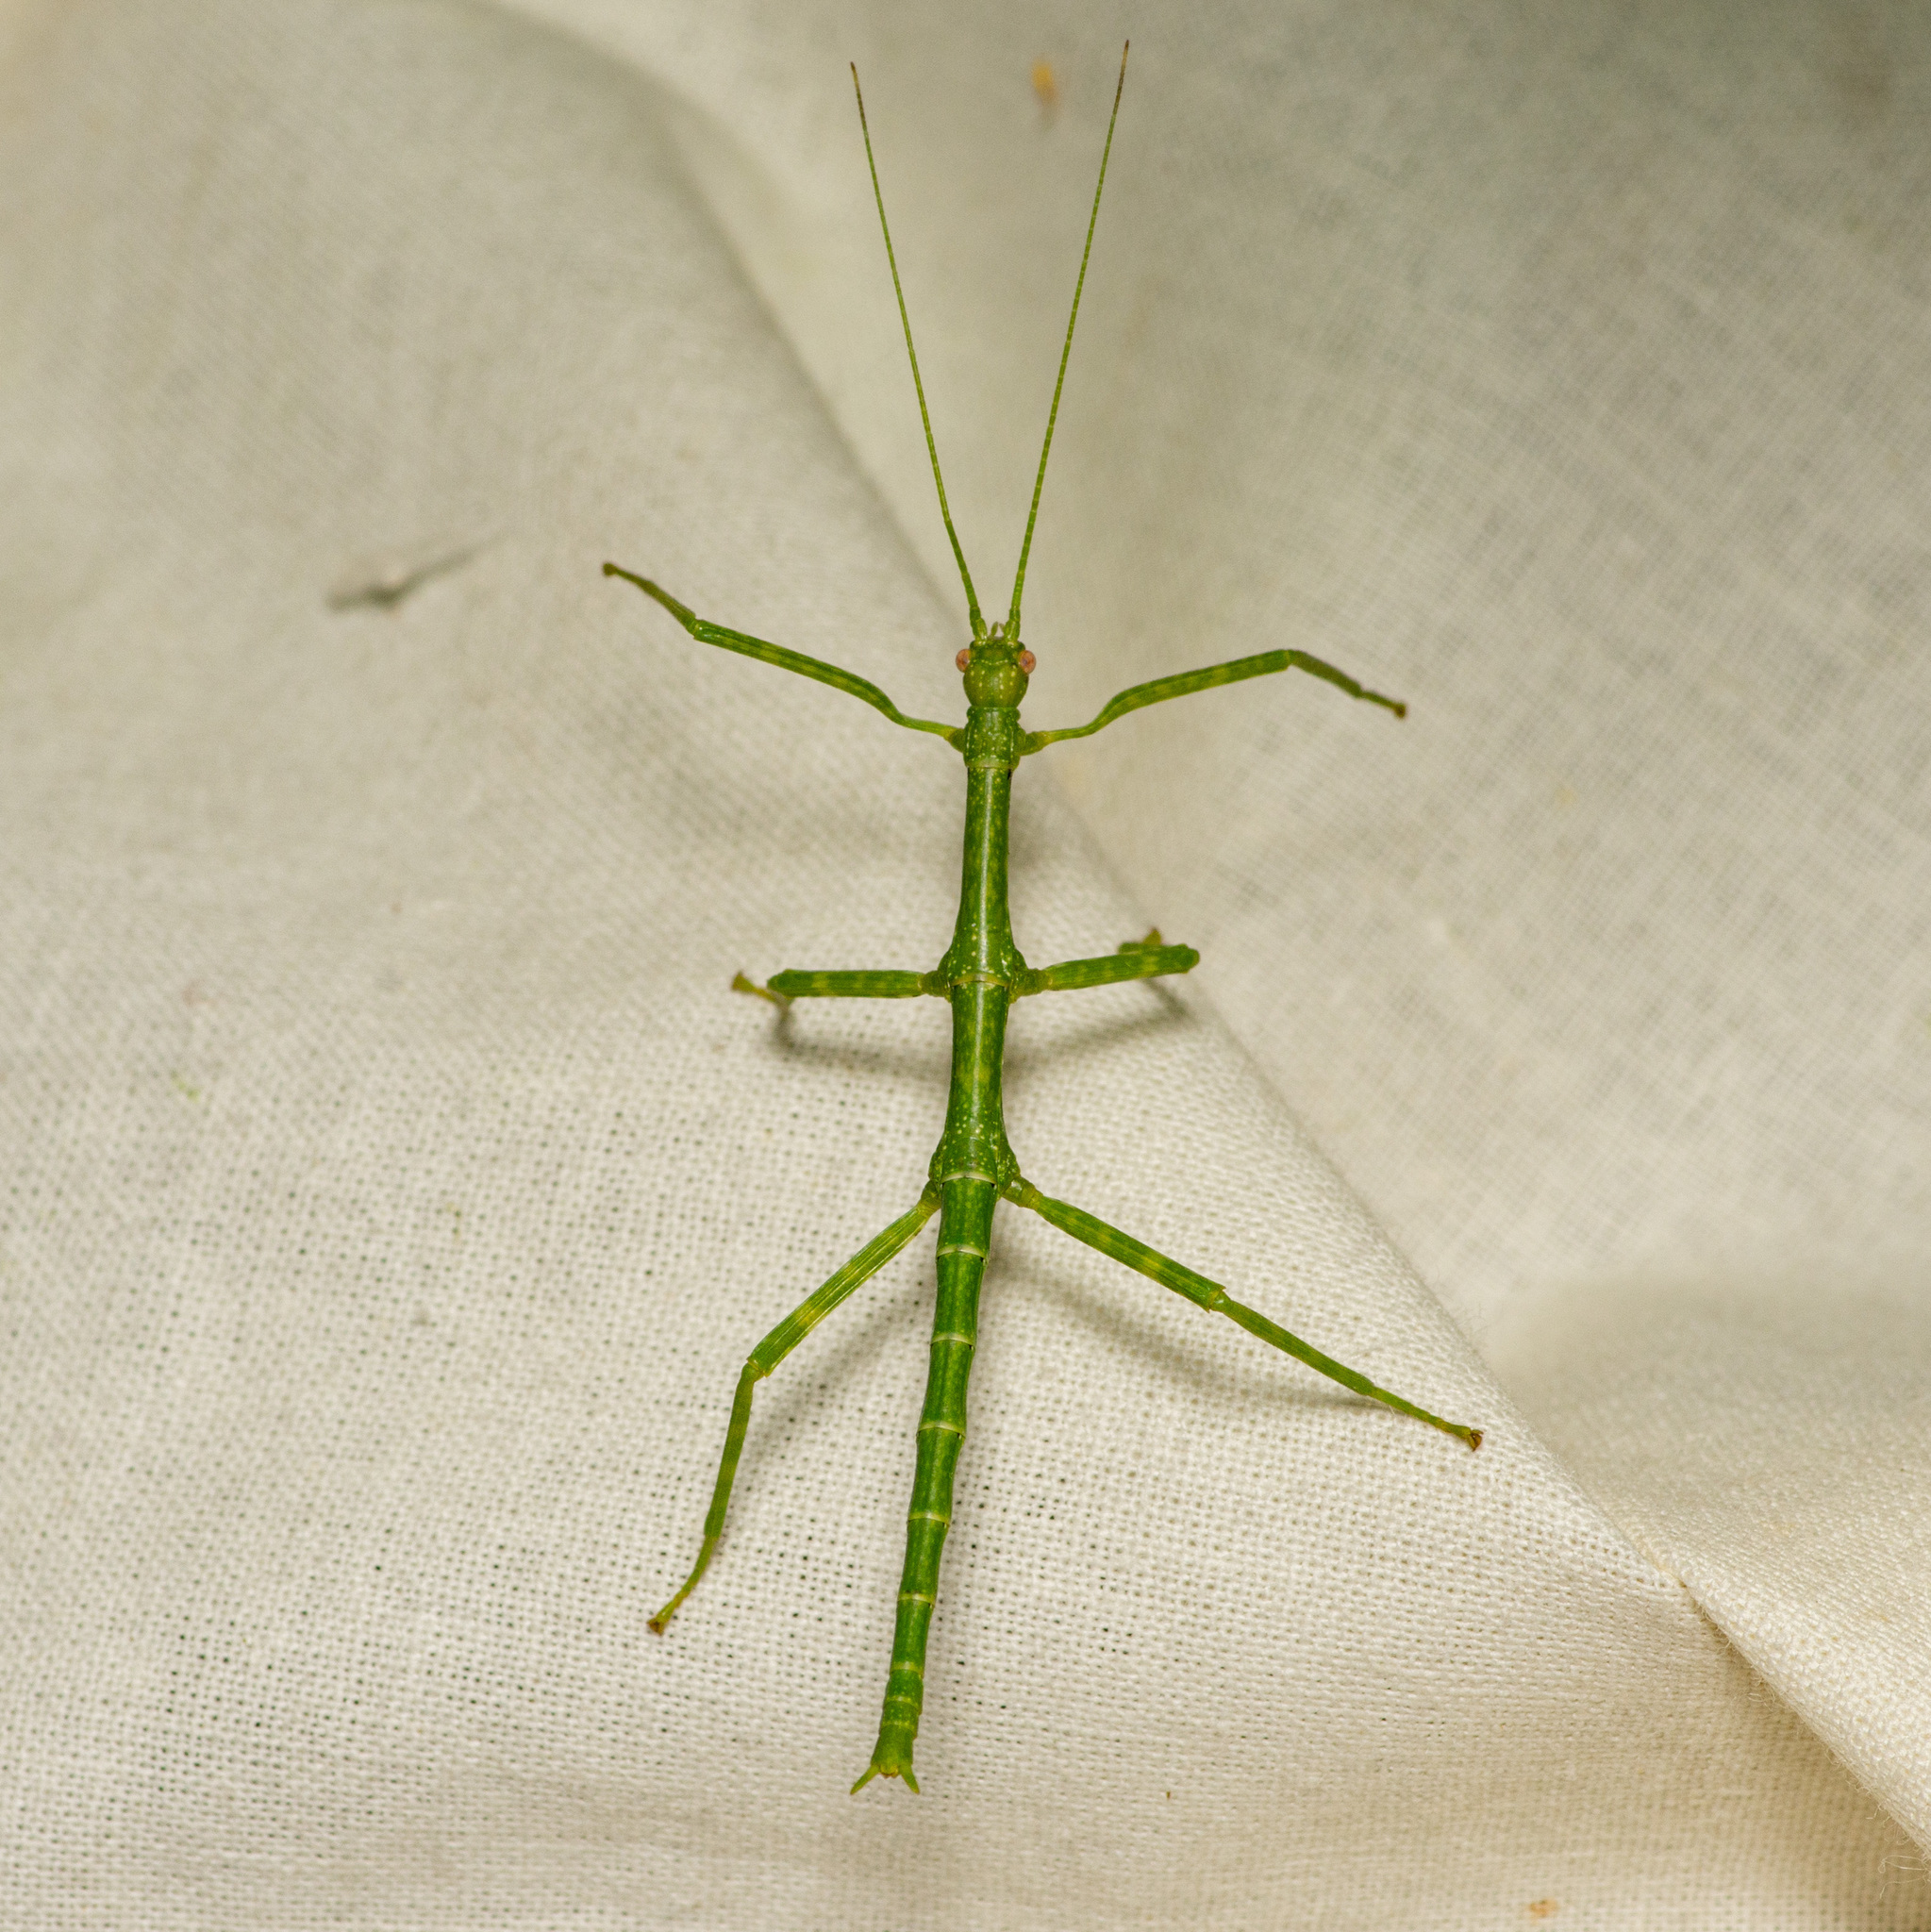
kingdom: Animalia
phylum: Arthropoda
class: Insecta
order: Phasmida
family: Diapheromeridae
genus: Megaphasma
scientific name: Megaphasma denticrus
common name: Giant walkingstick
